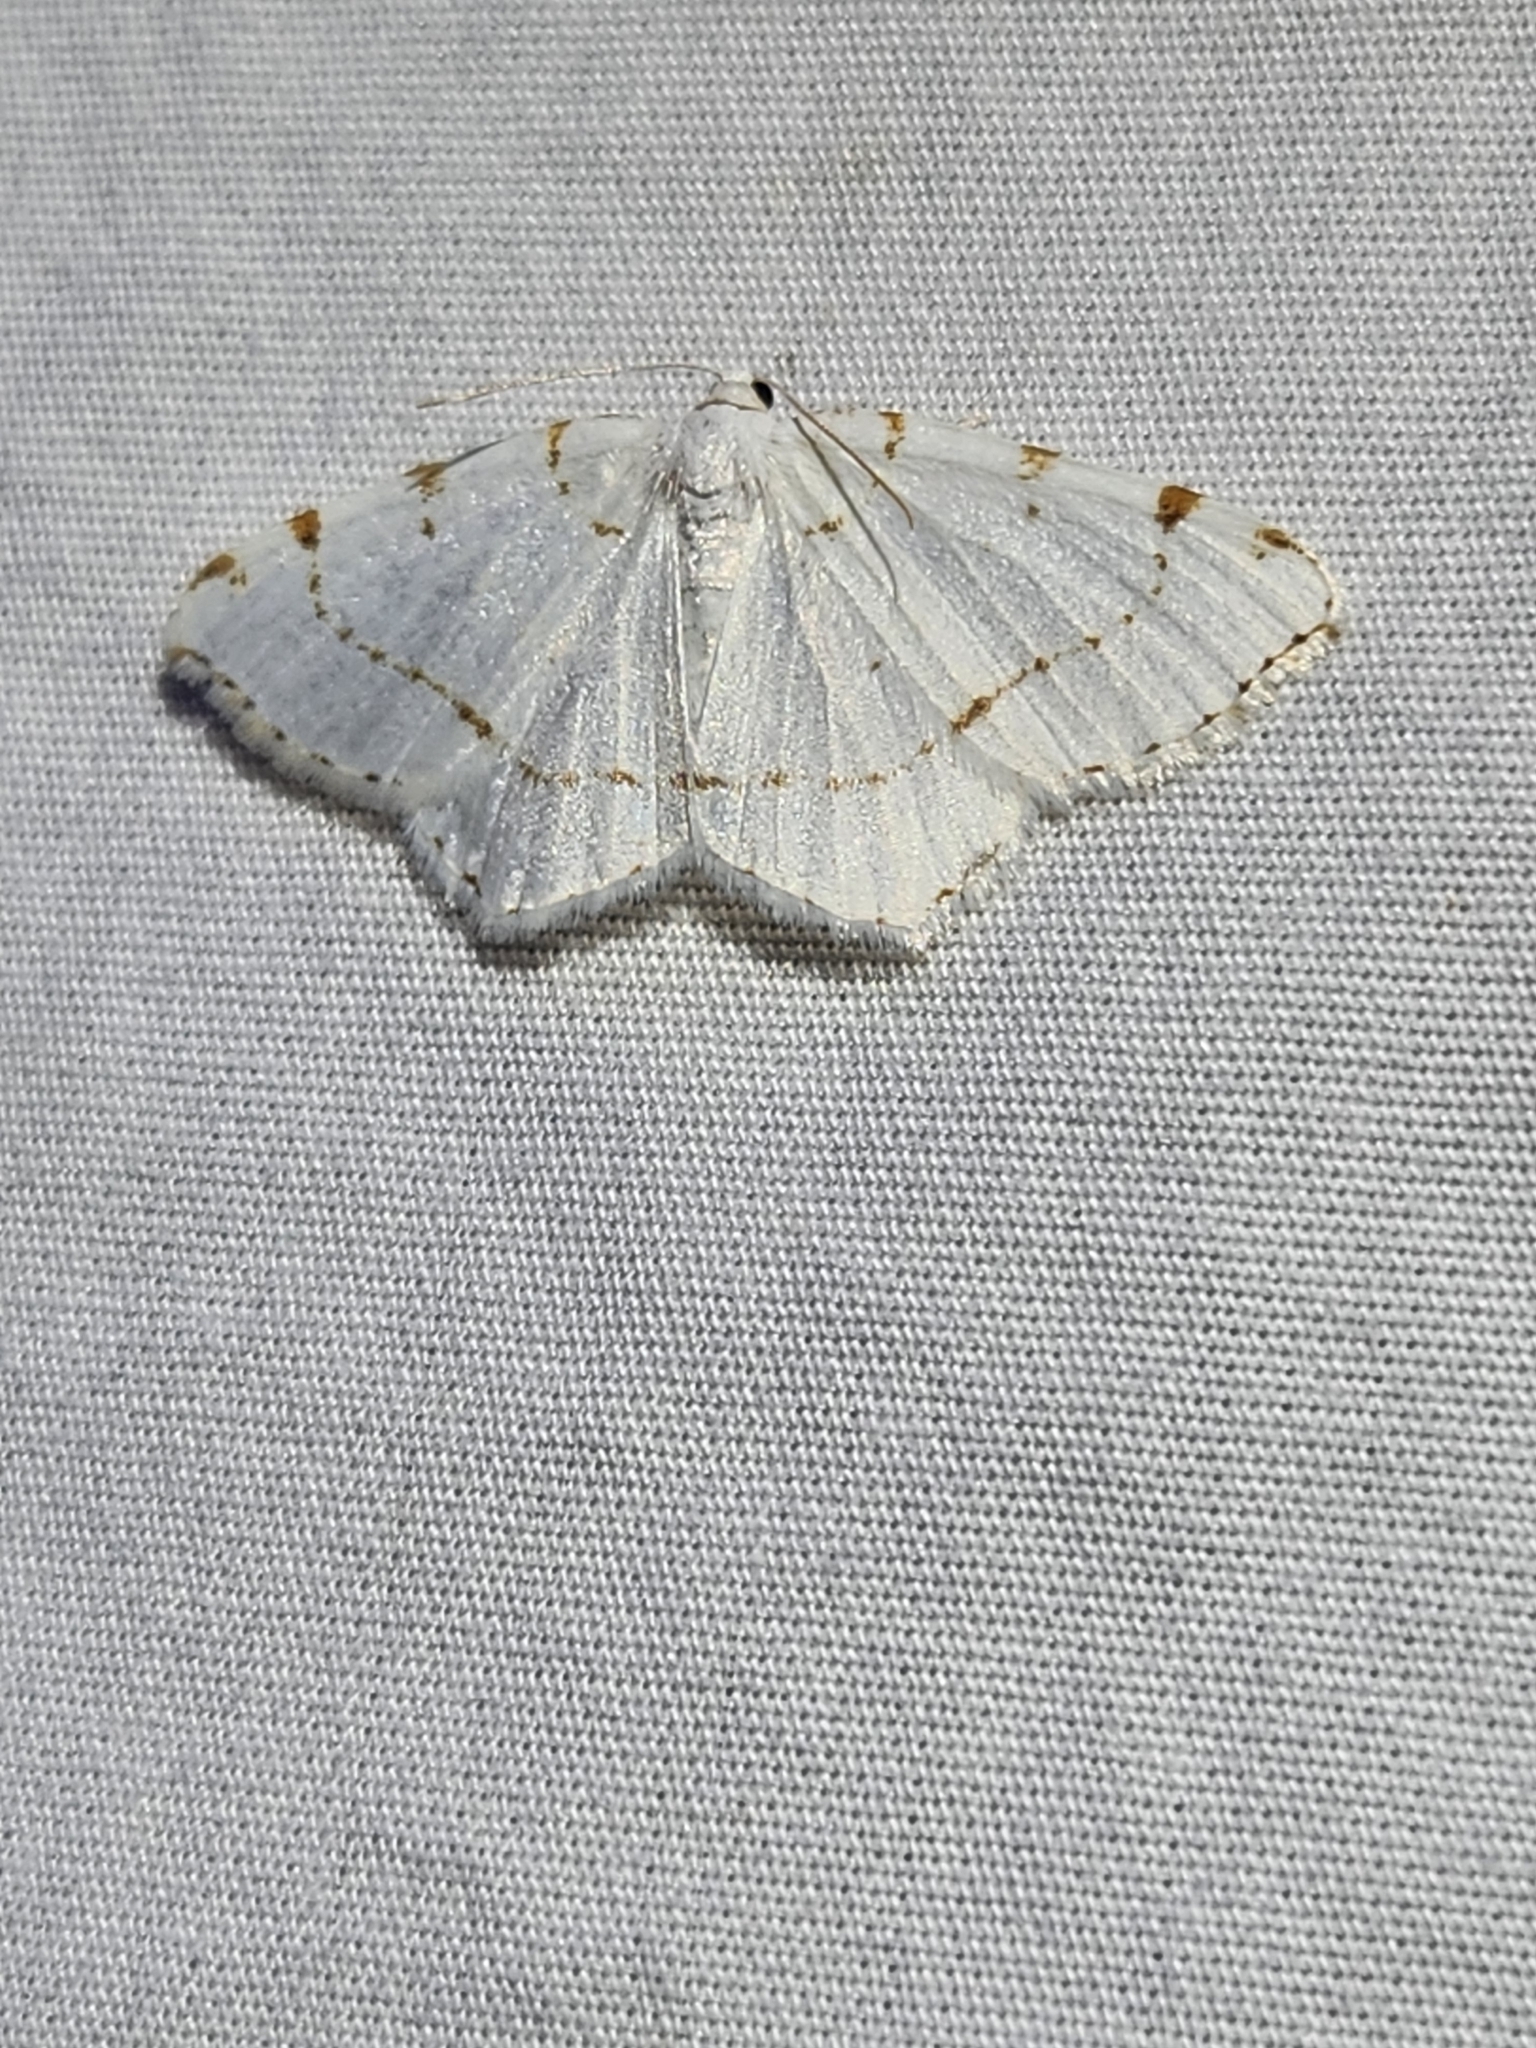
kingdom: Animalia
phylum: Arthropoda
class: Insecta
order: Lepidoptera
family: Geometridae
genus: Macaria
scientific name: Macaria pustularia
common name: Lesser maple spanworm moth
